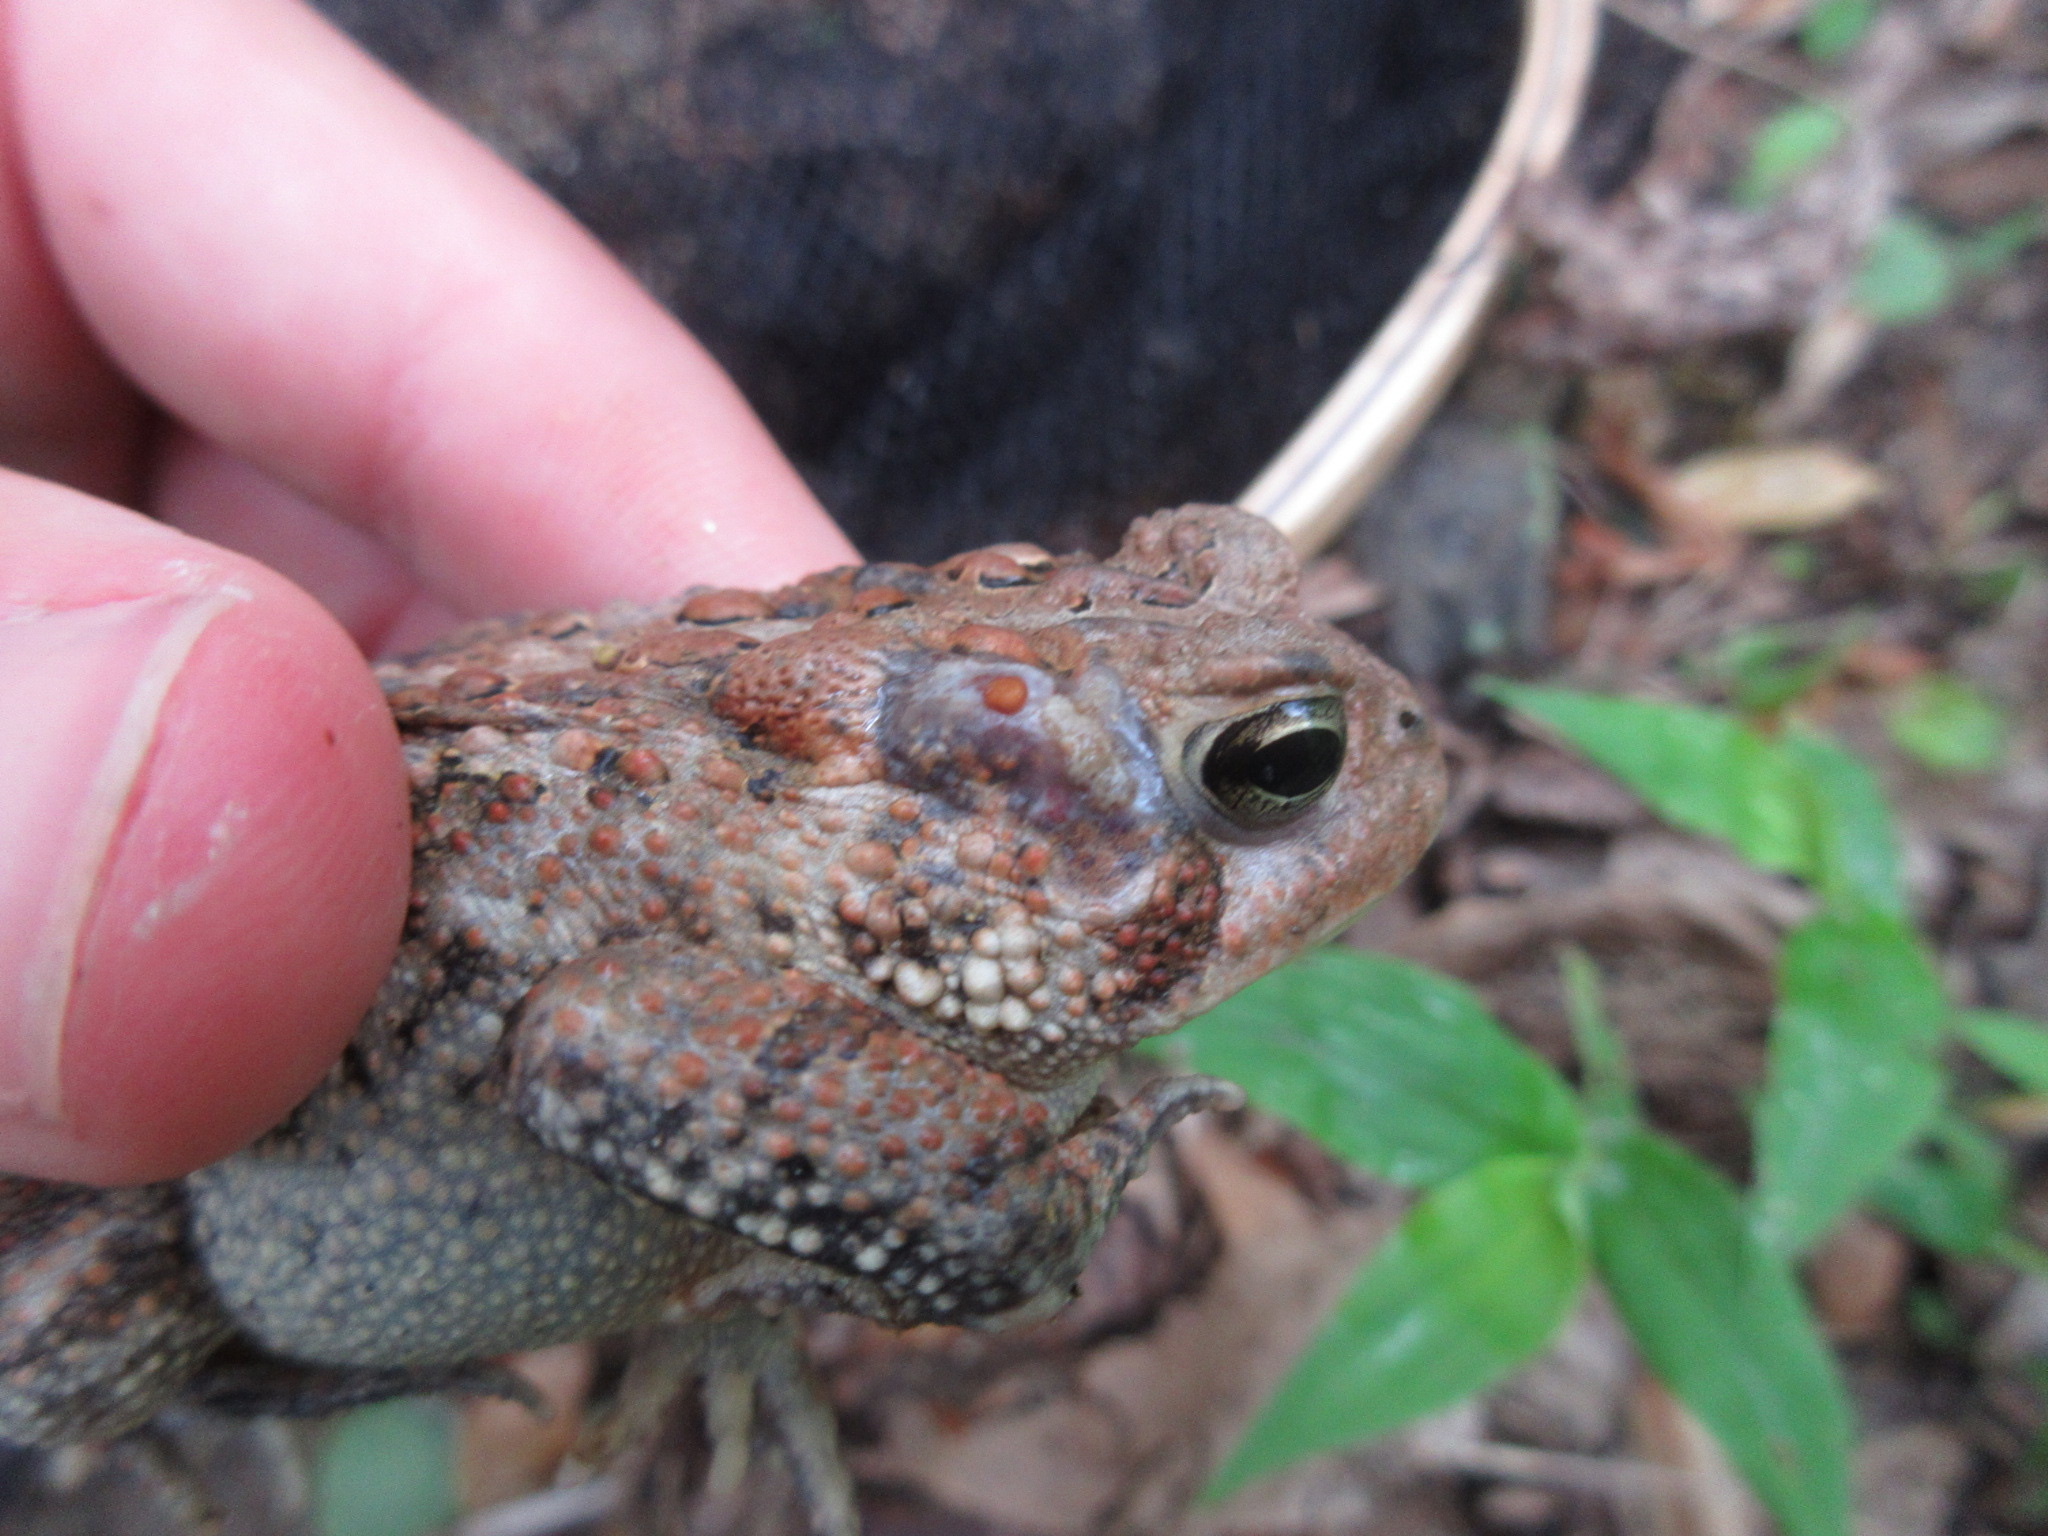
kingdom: Animalia
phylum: Chordata
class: Amphibia
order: Anura
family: Bufonidae
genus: Anaxyrus
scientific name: Anaxyrus americanus
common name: American toad
